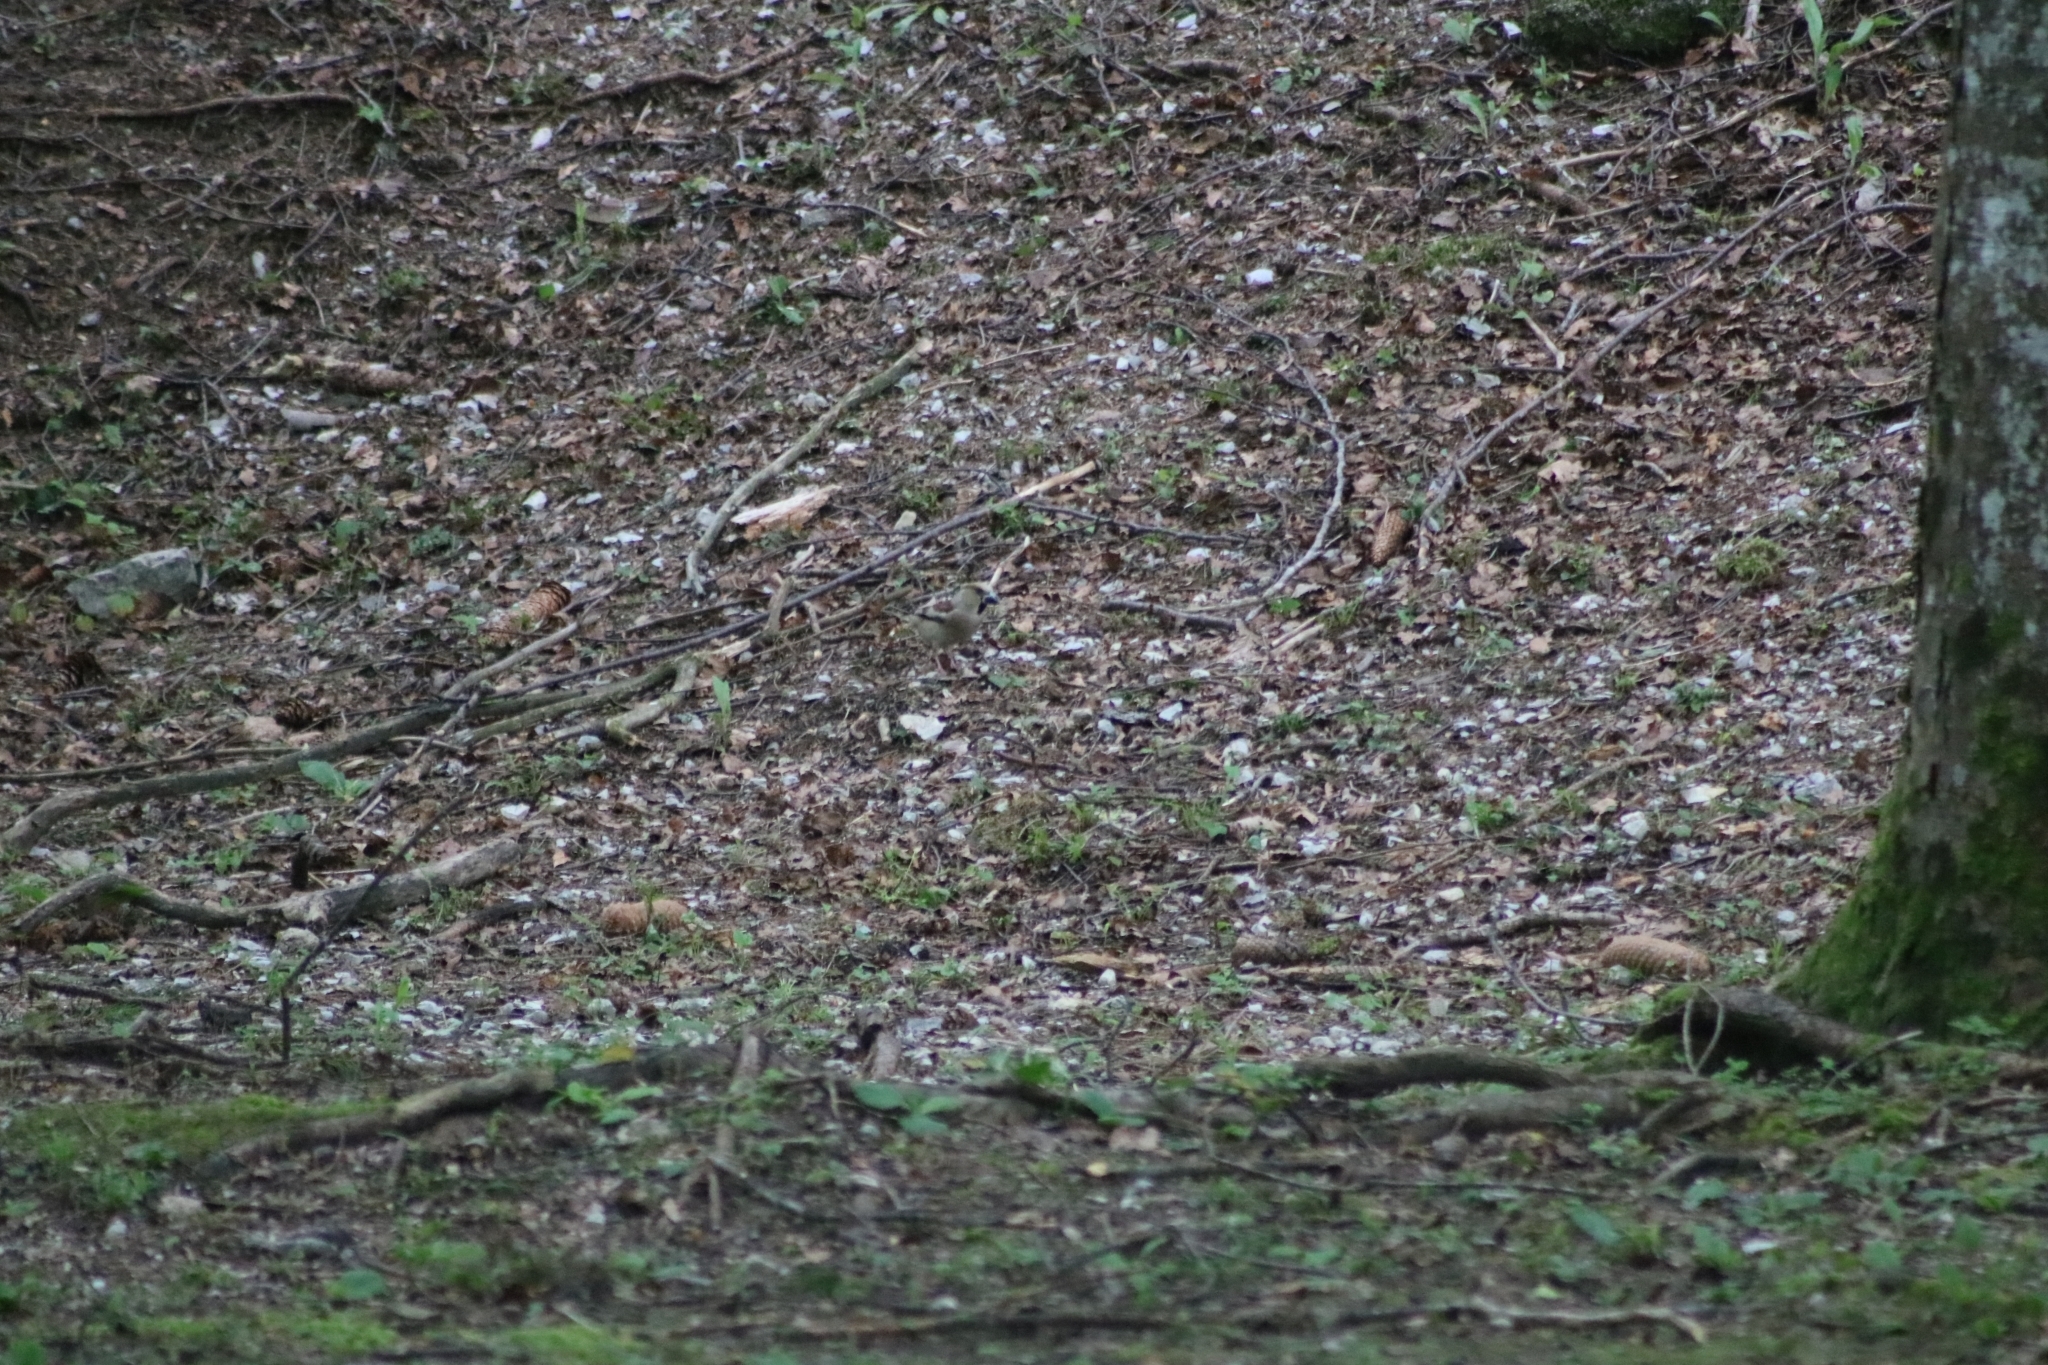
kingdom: Animalia
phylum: Chordata
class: Aves
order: Passeriformes
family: Fringillidae
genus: Coccothraustes
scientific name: Coccothraustes coccothraustes
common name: Hawfinch
